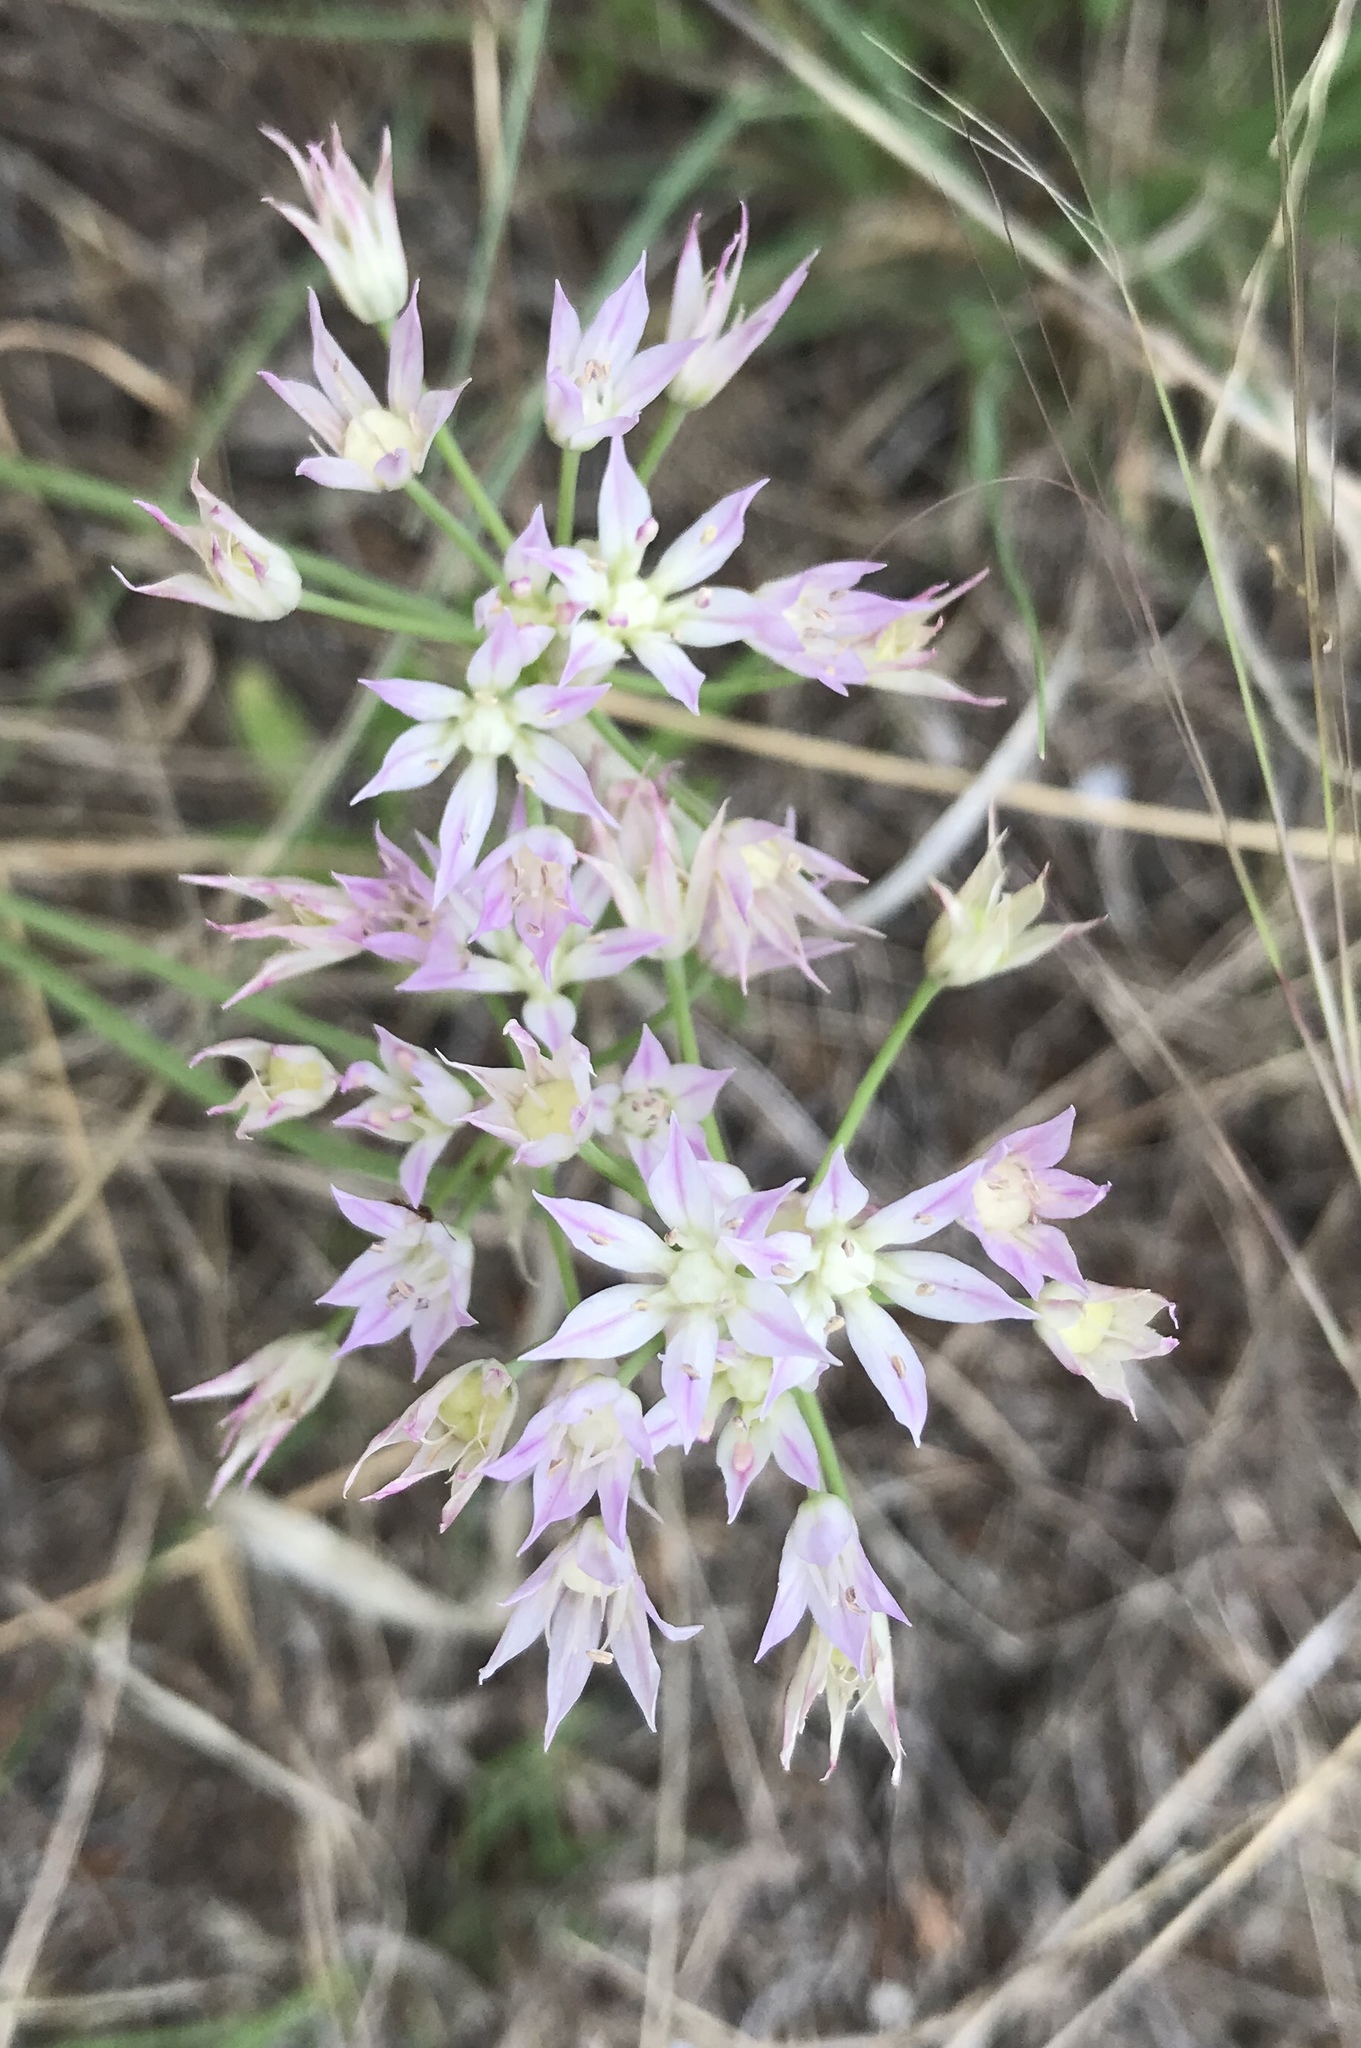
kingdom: Plantae
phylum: Tracheophyta
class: Liliopsida
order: Asparagales
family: Amaryllidaceae
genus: Allium
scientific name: Allium drummondii
